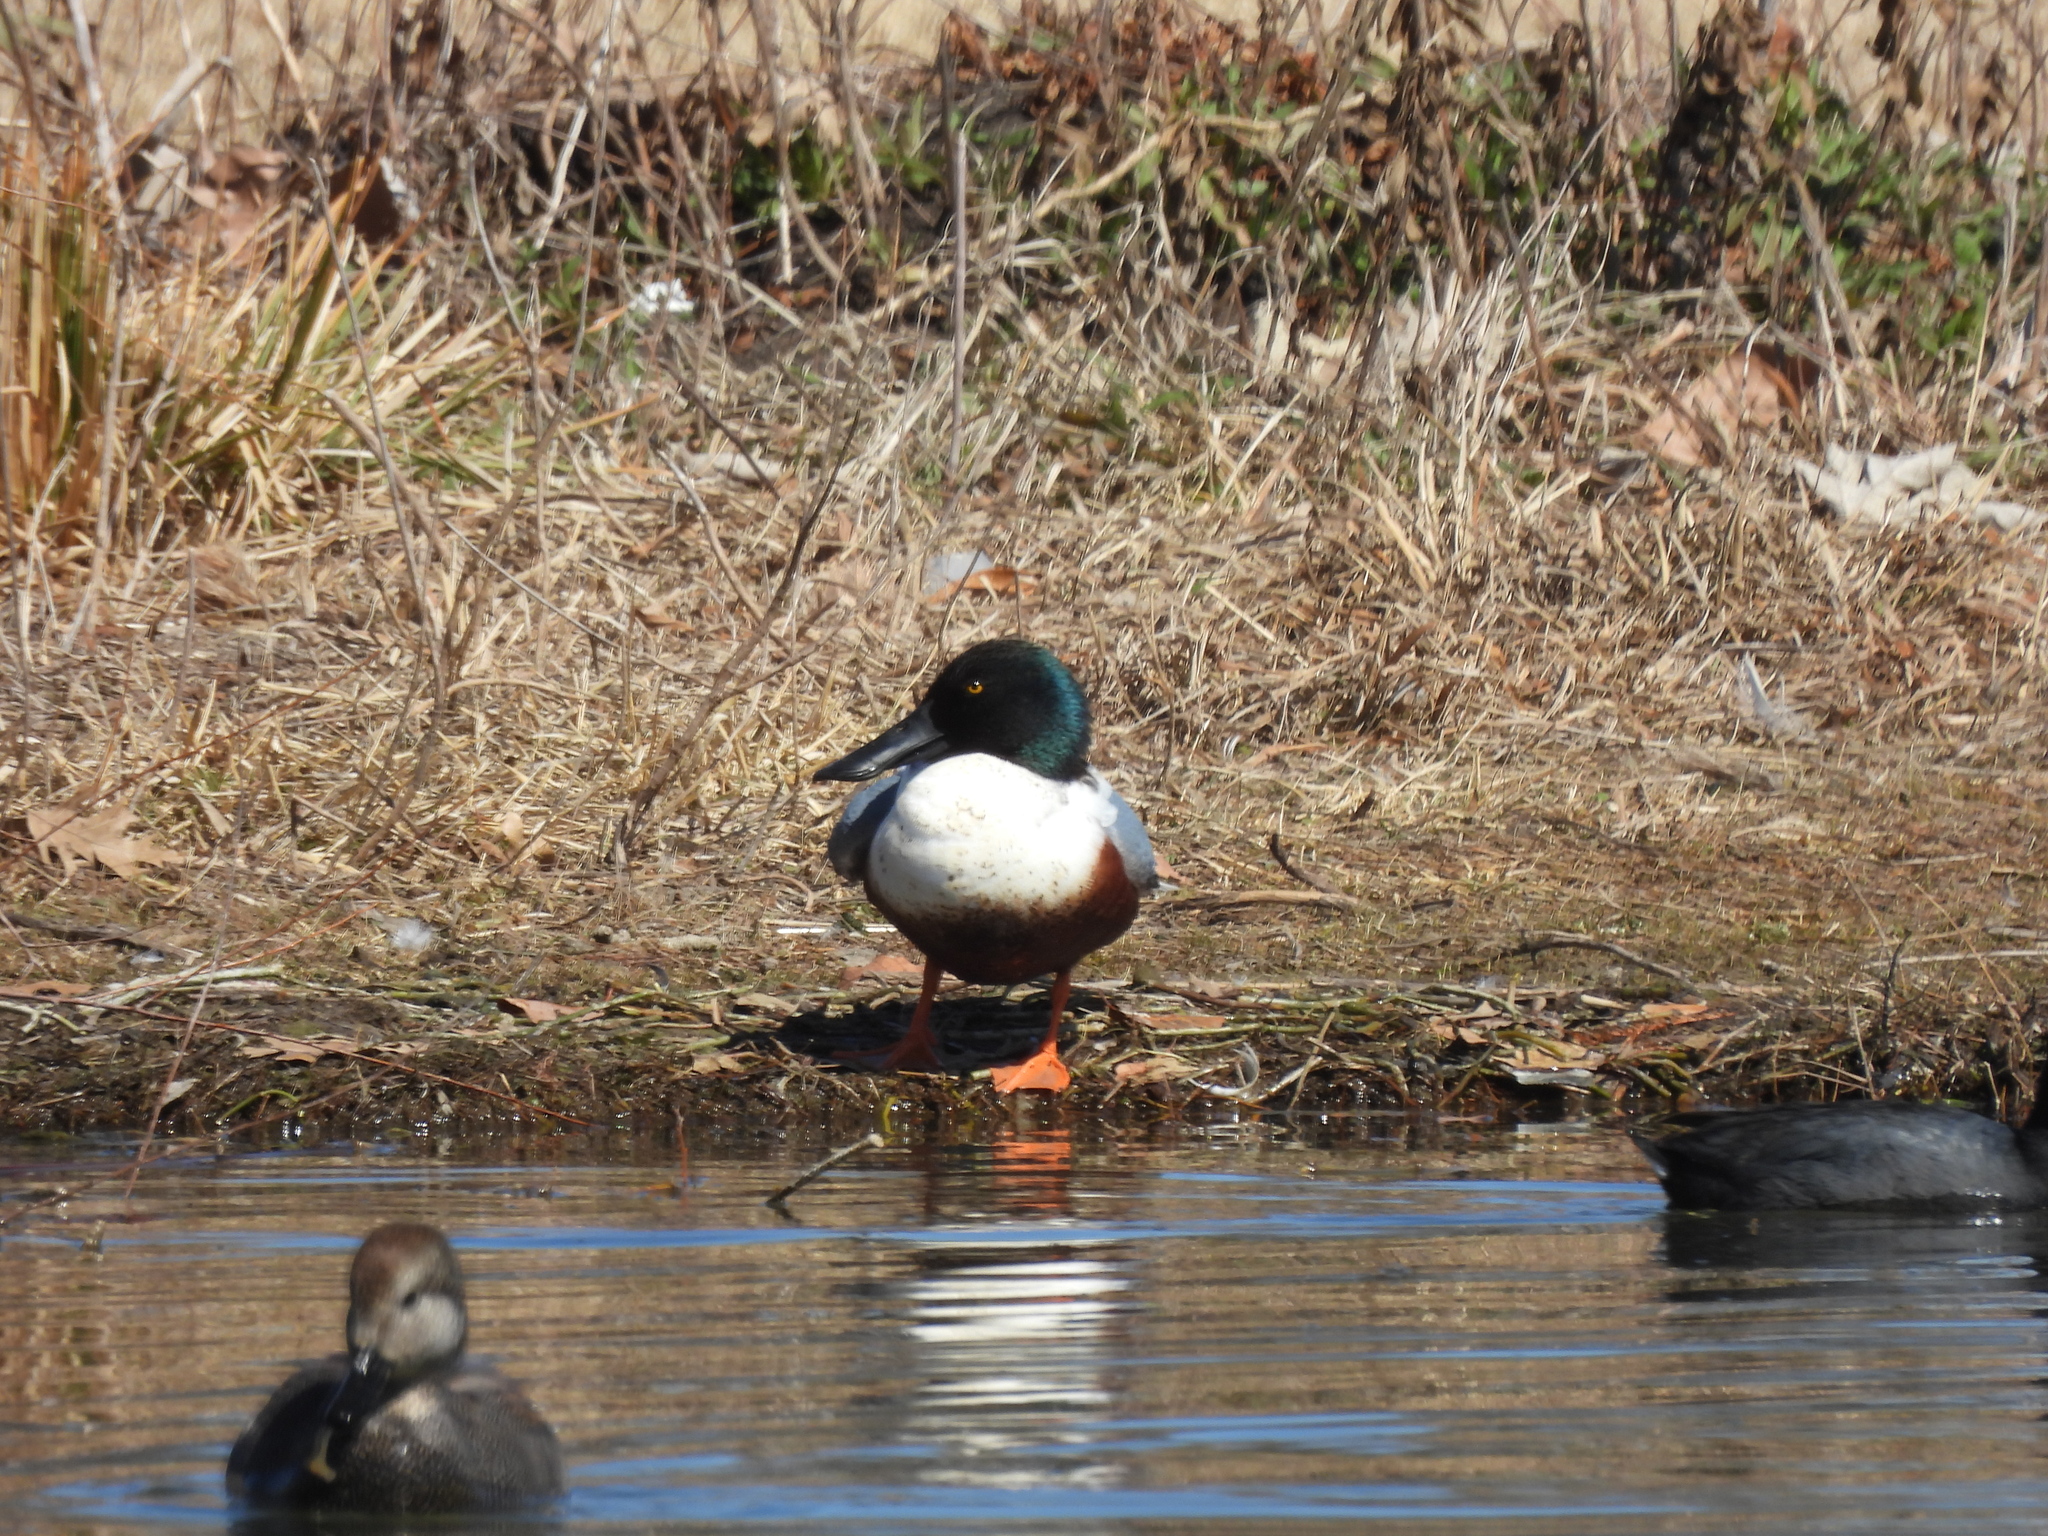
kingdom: Animalia
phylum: Chordata
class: Aves
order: Anseriformes
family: Anatidae
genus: Spatula
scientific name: Spatula clypeata
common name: Northern shoveler
